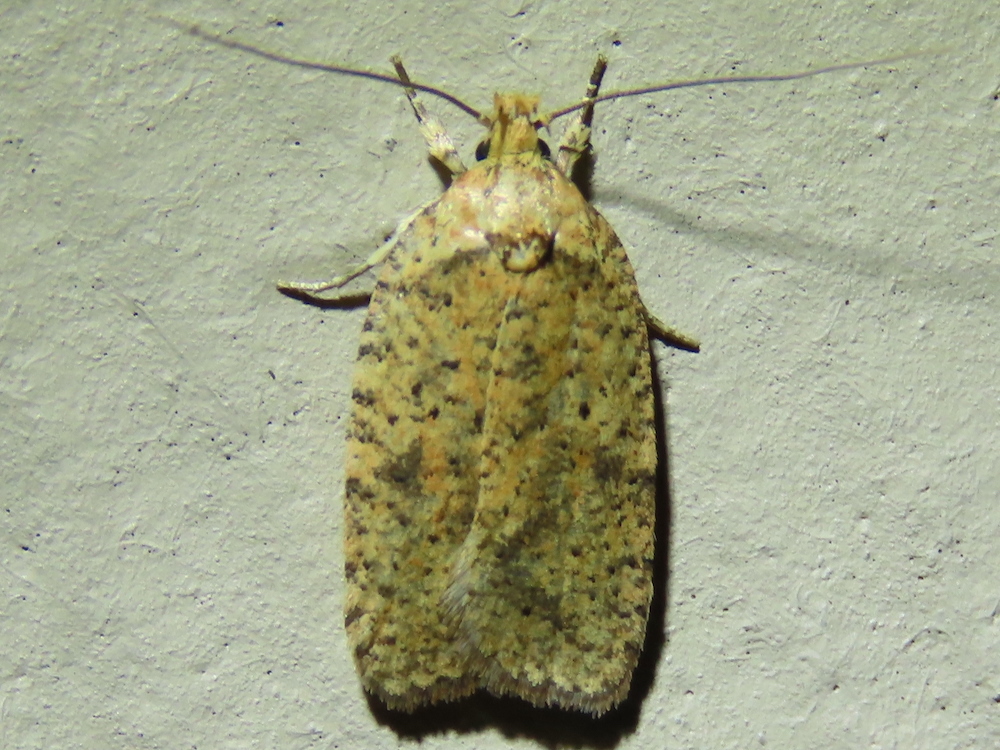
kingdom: Animalia
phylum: Arthropoda
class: Insecta
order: Lepidoptera
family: Depressariidae
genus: Agonopterix
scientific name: Agonopterix thelmae
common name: Thelma's agonopterix moth
